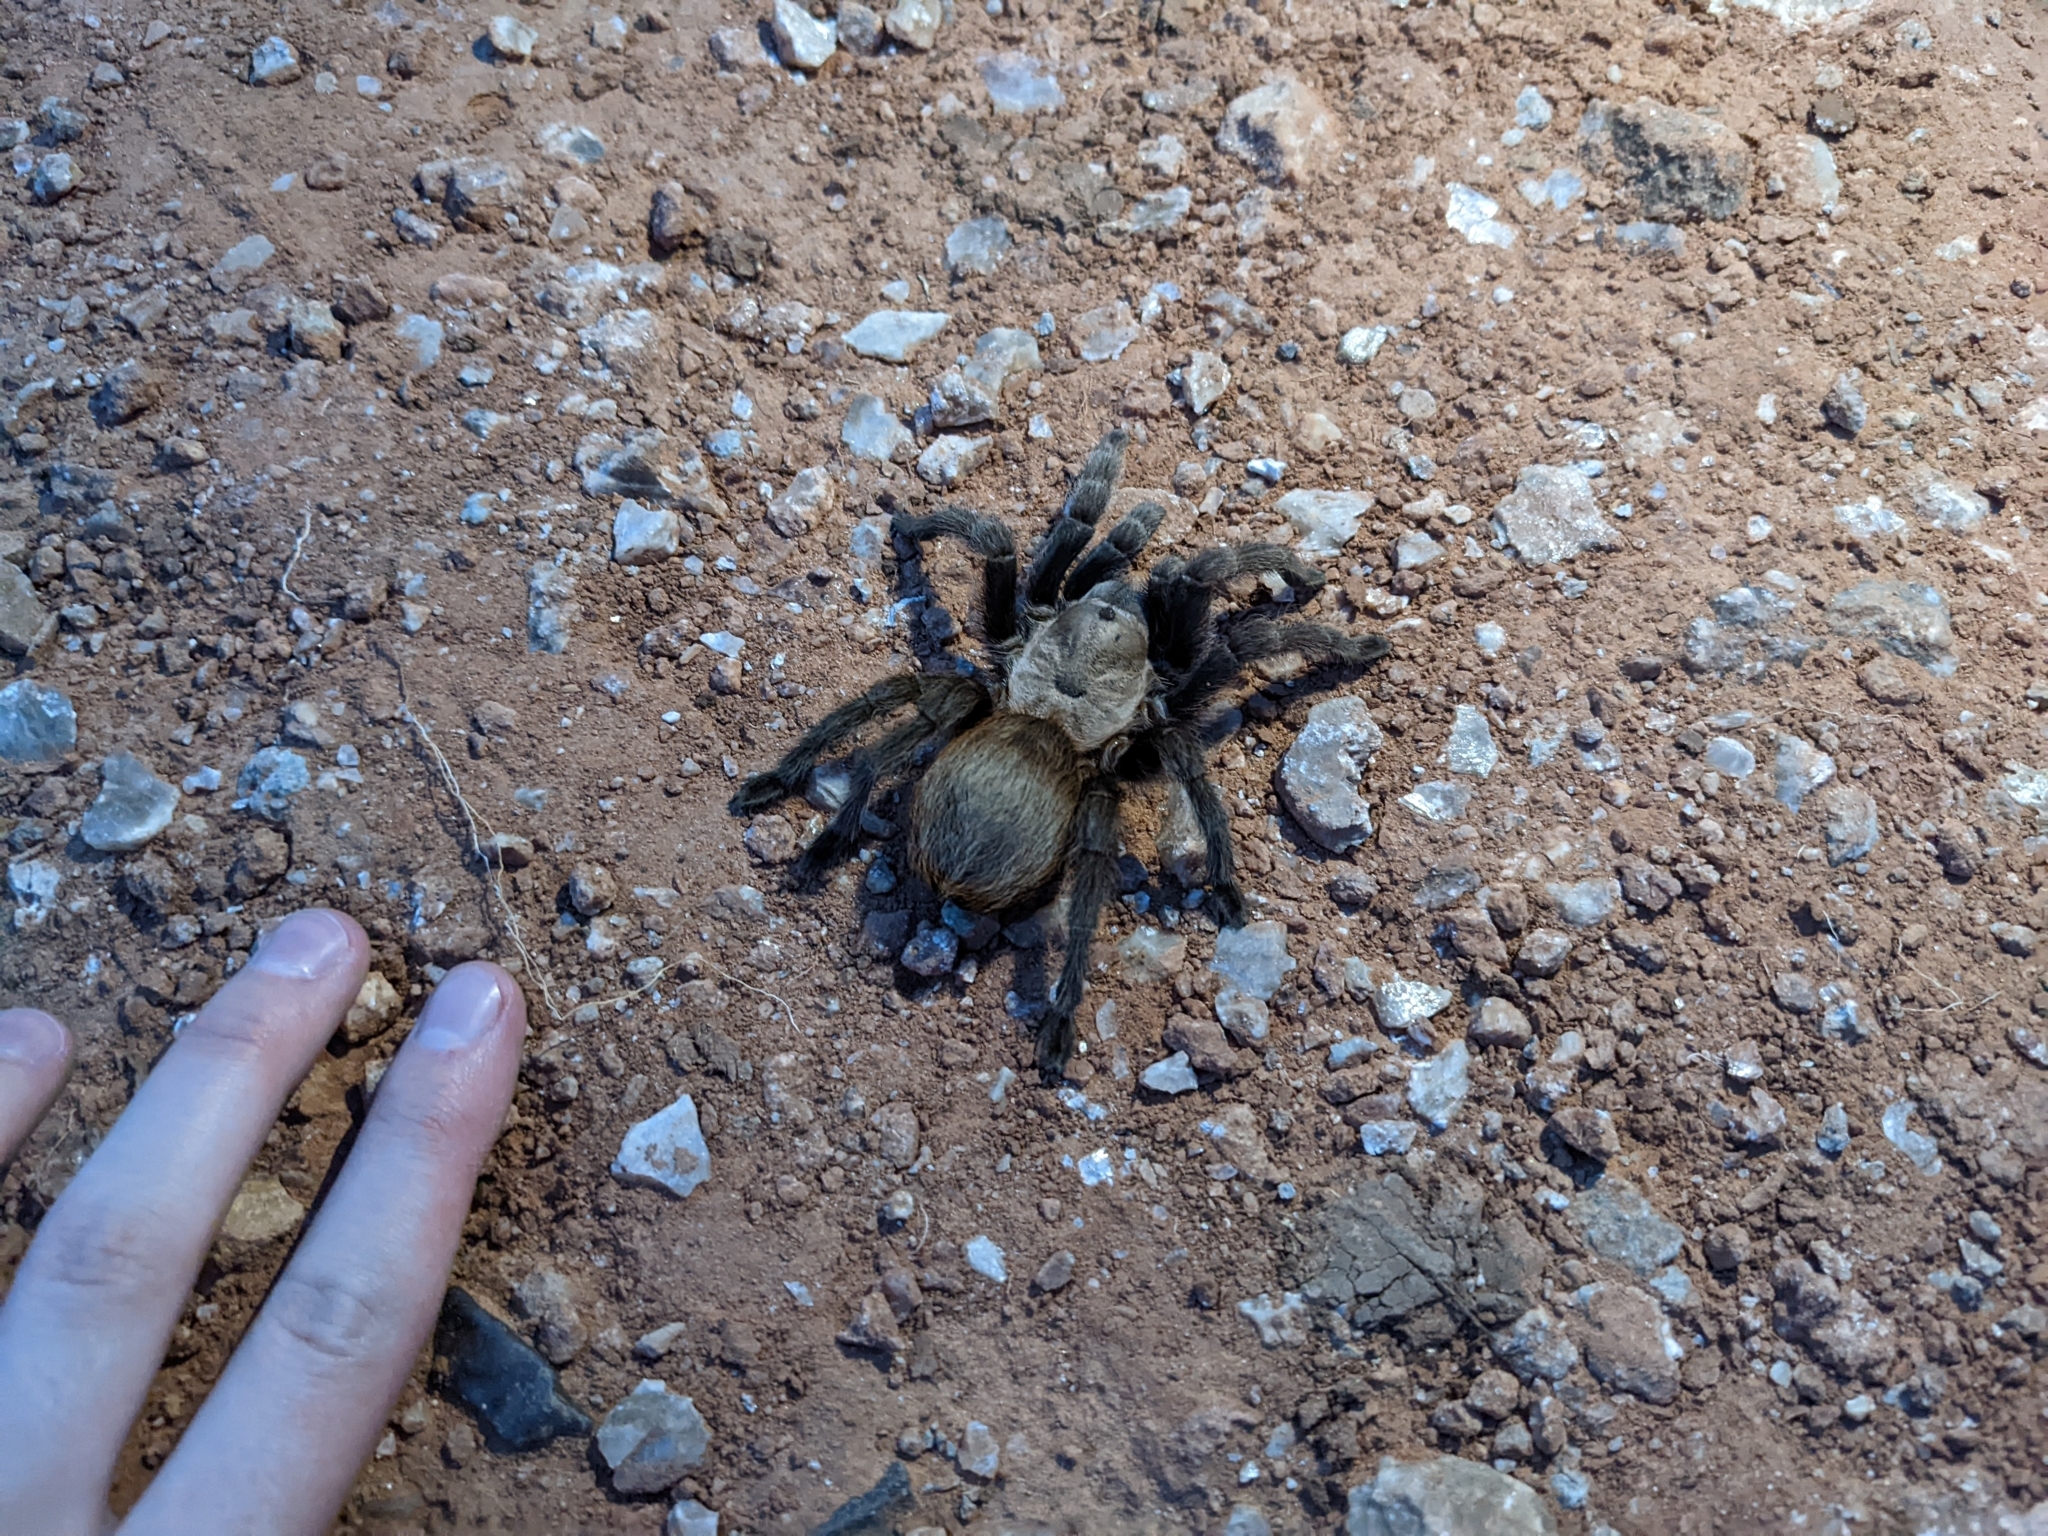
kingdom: Animalia
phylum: Arthropoda
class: Arachnida
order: Araneae
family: Theraphosidae
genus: Aphonopelma
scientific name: Aphonopelma hentzi
